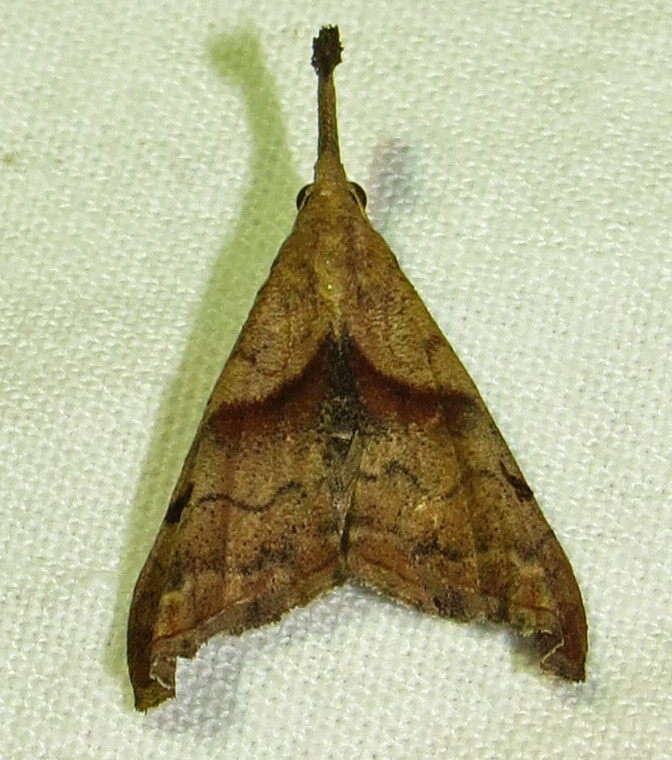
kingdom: Animalia
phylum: Arthropoda
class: Insecta
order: Lepidoptera
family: Erebidae
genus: Palthis
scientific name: Palthis angulalis
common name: Dark-spotted palthis moth
